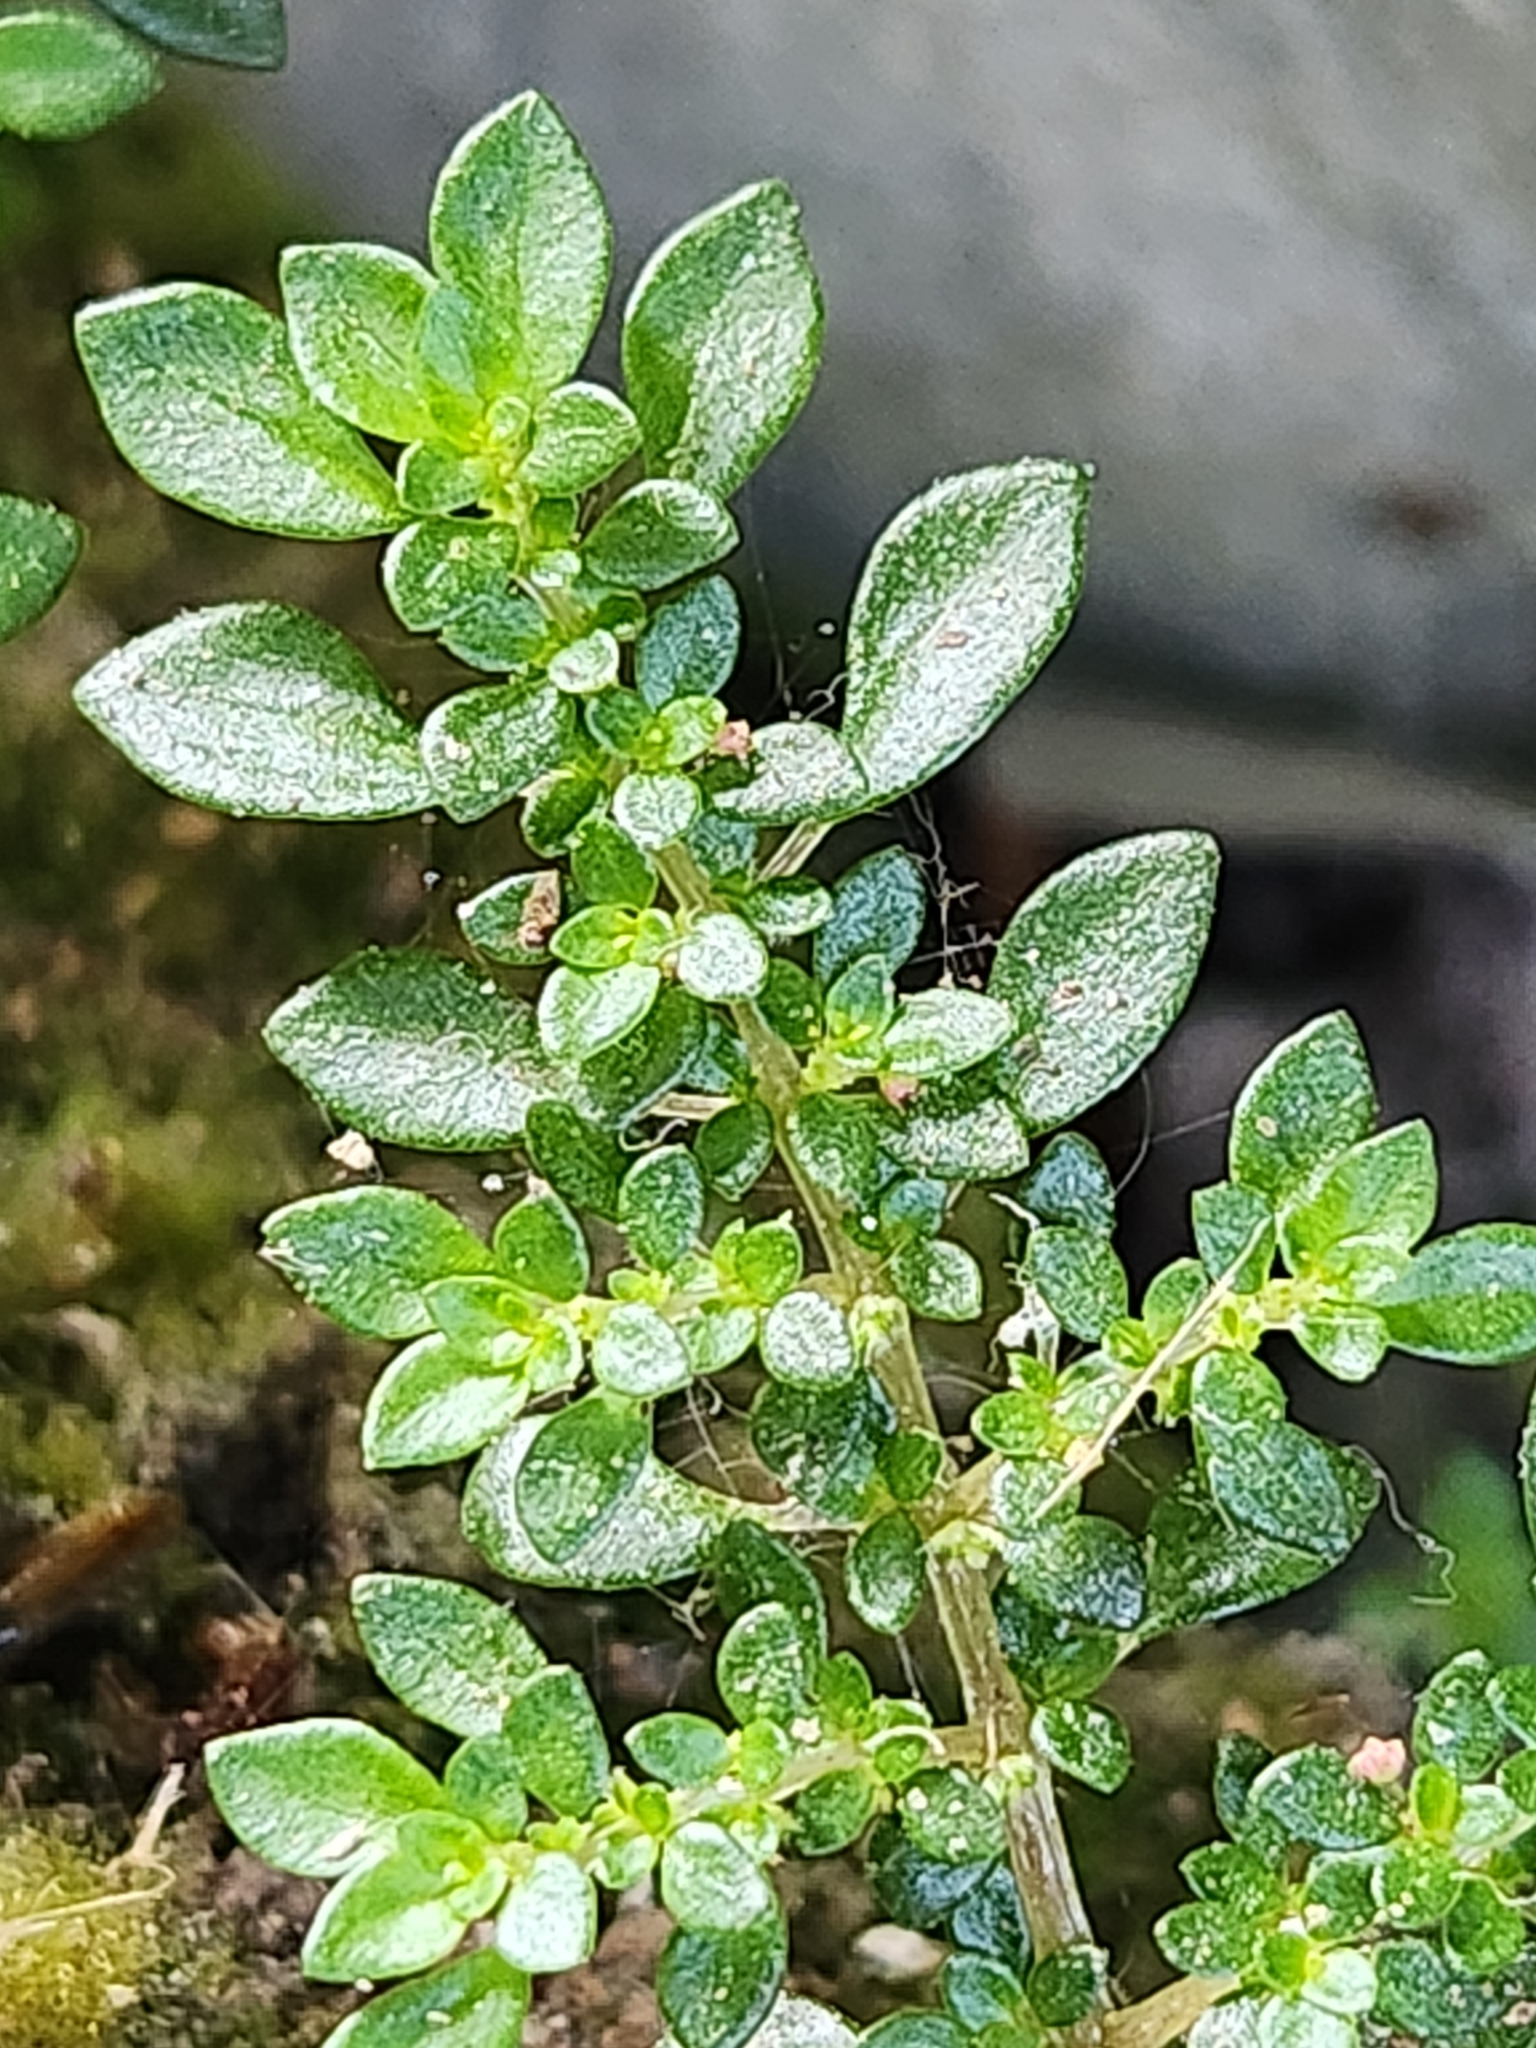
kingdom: Plantae
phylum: Tracheophyta
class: Magnoliopsida
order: Rosales
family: Urticaceae
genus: Pilea
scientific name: Pilea microphylla
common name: Artillery-plant
